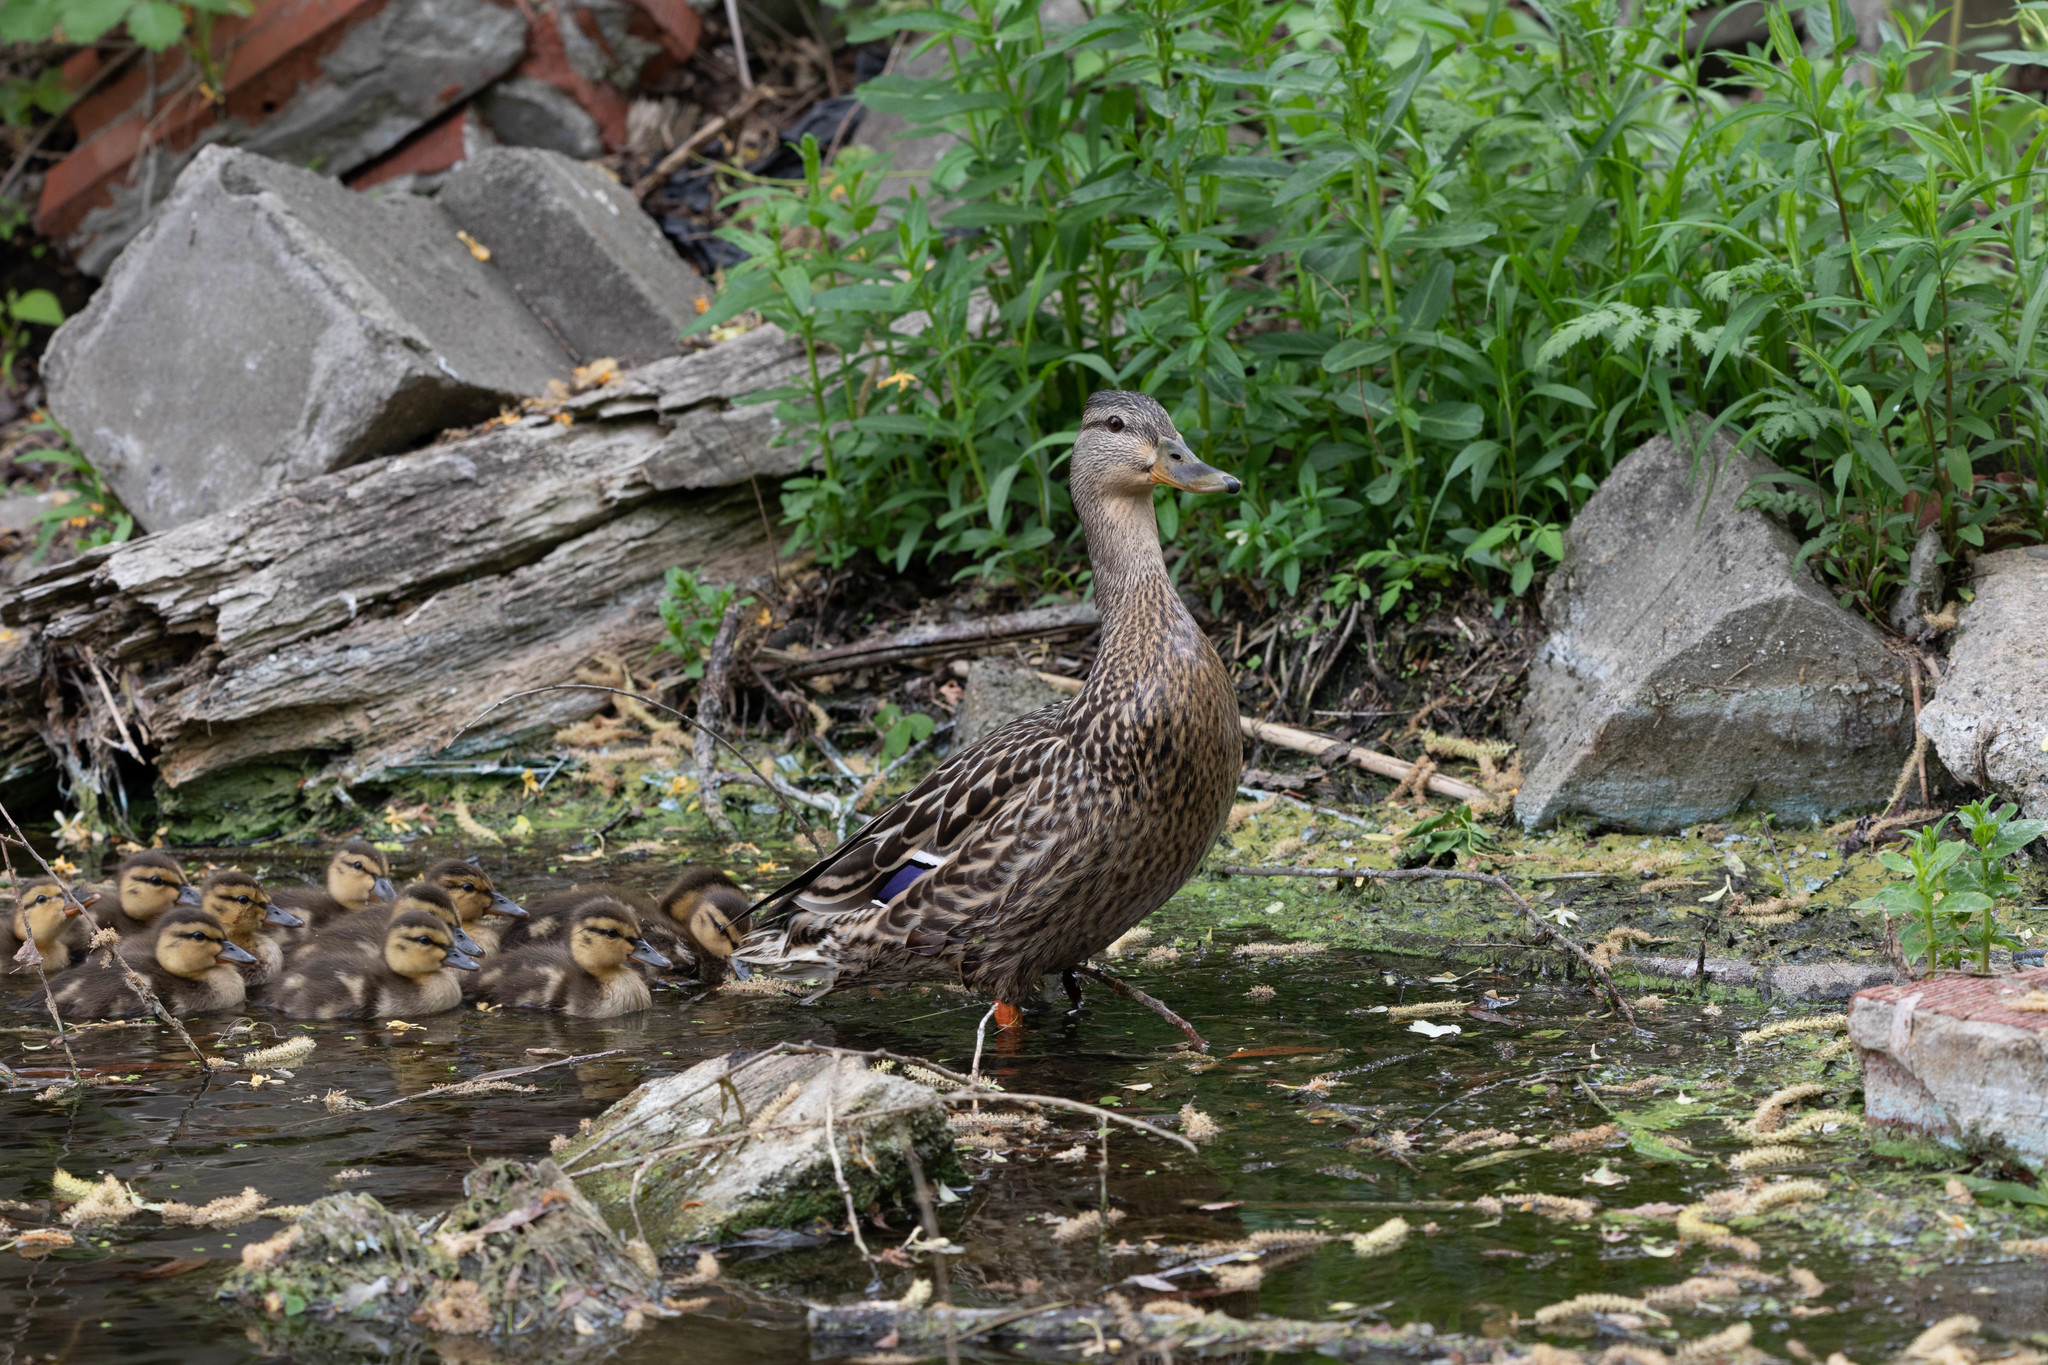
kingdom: Animalia
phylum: Chordata
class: Aves
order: Anseriformes
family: Anatidae
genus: Anas
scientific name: Anas platyrhynchos
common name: Mallard
